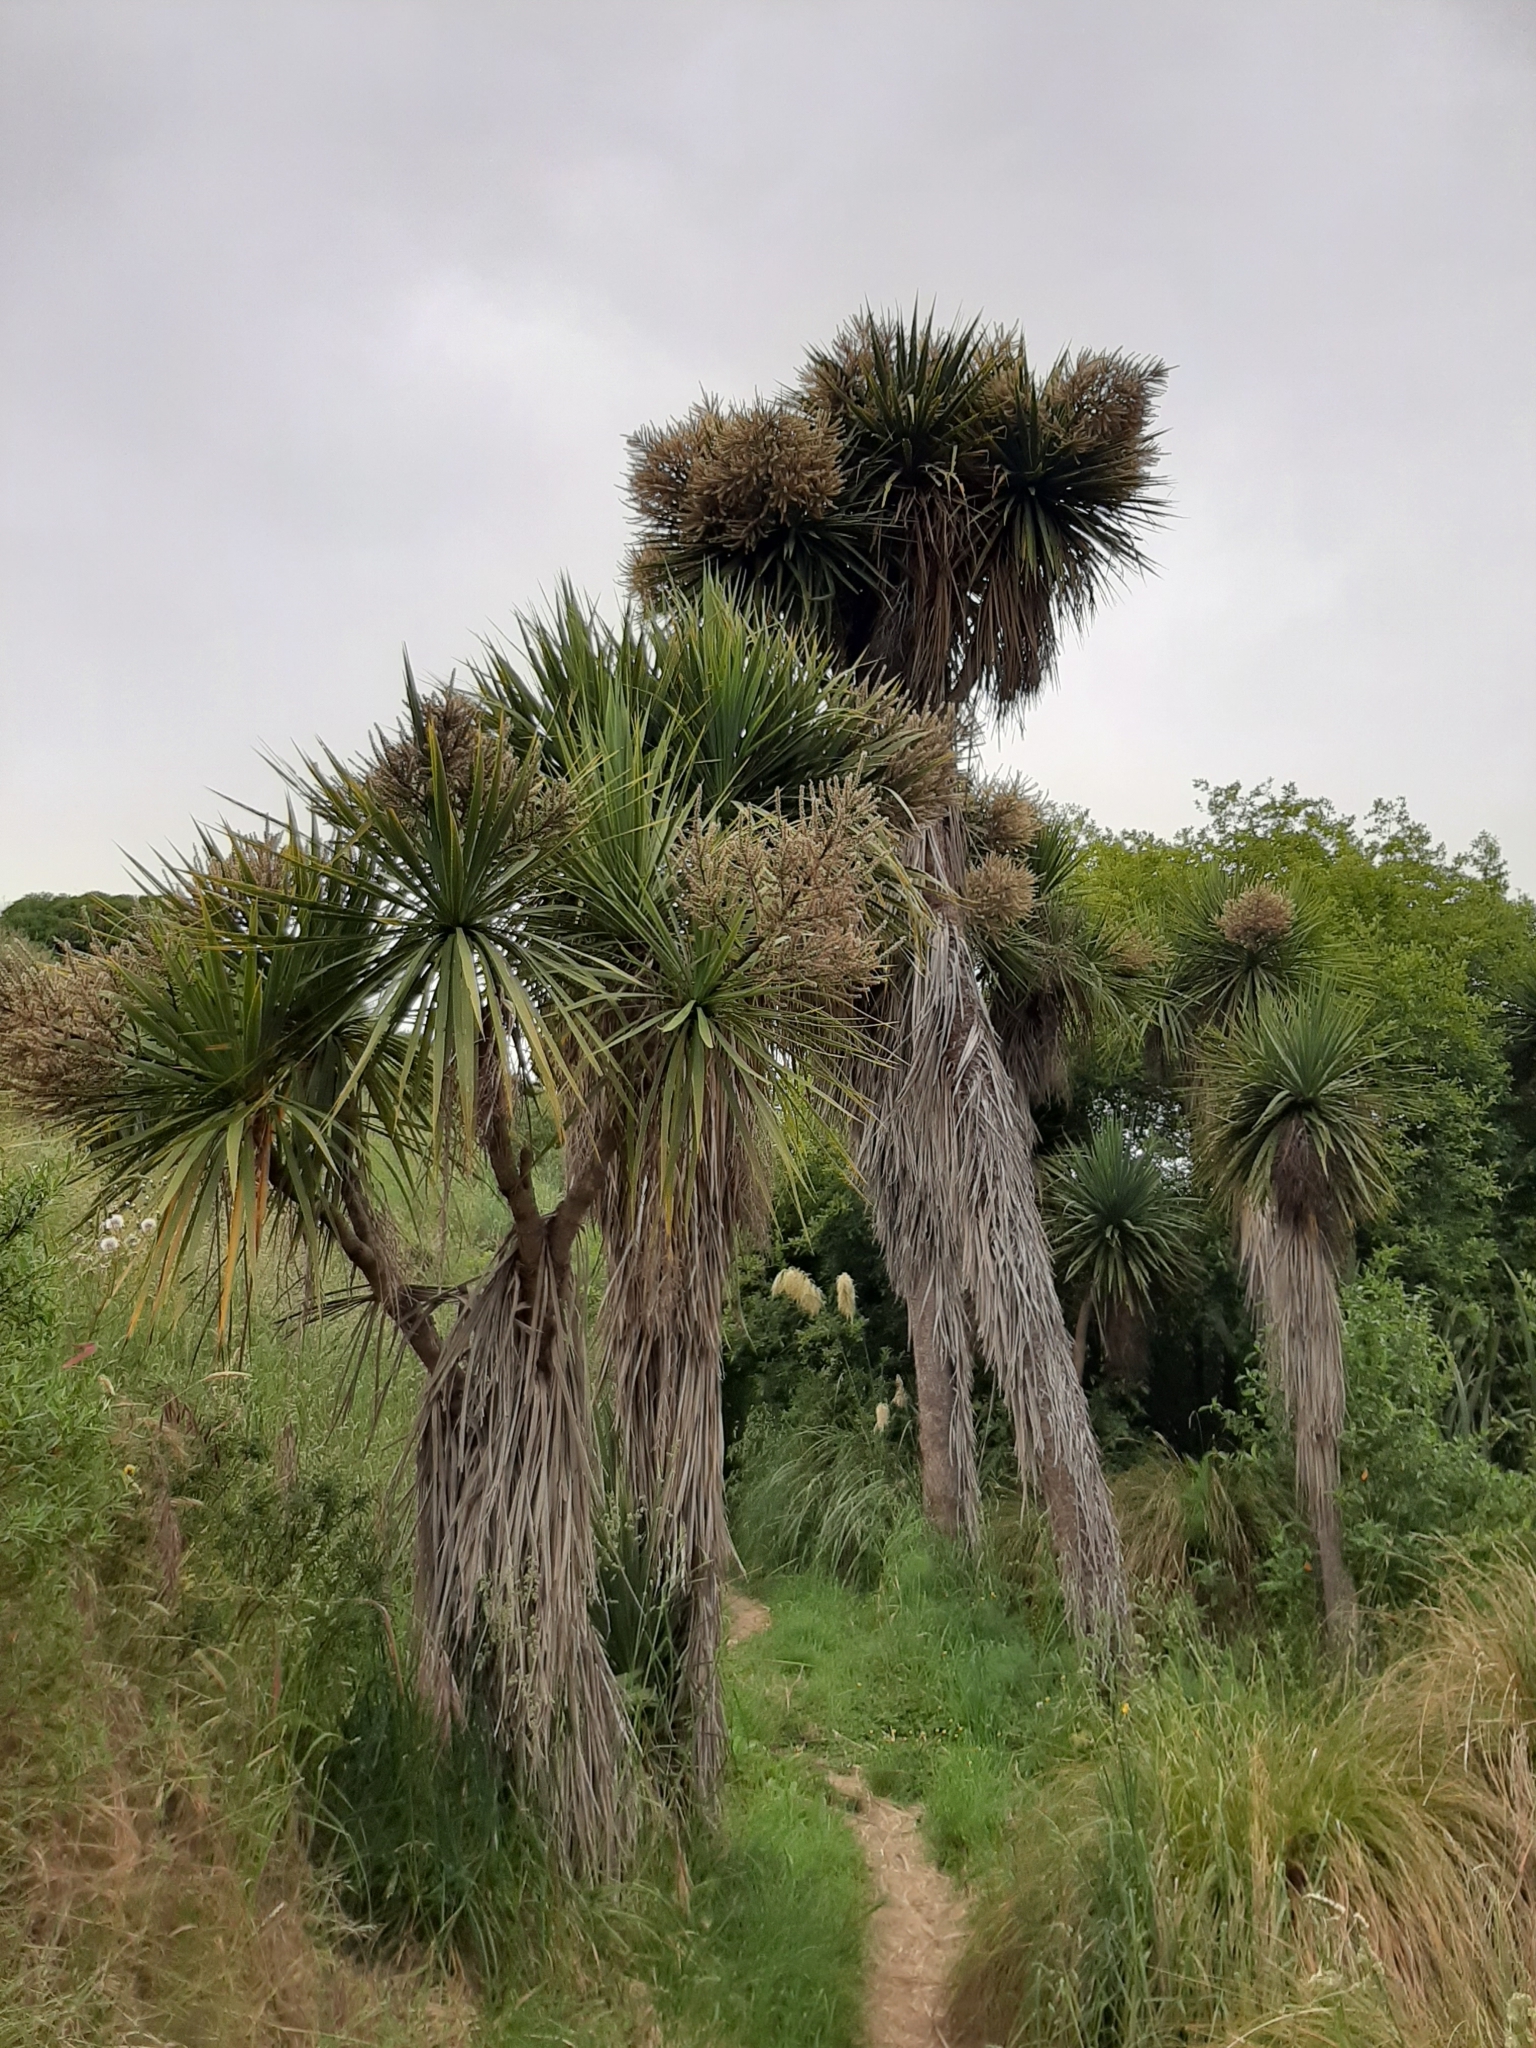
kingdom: Plantae
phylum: Tracheophyta
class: Liliopsida
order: Asparagales
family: Asparagaceae
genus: Cordyline
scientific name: Cordyline australis
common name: Cabbage-palm
